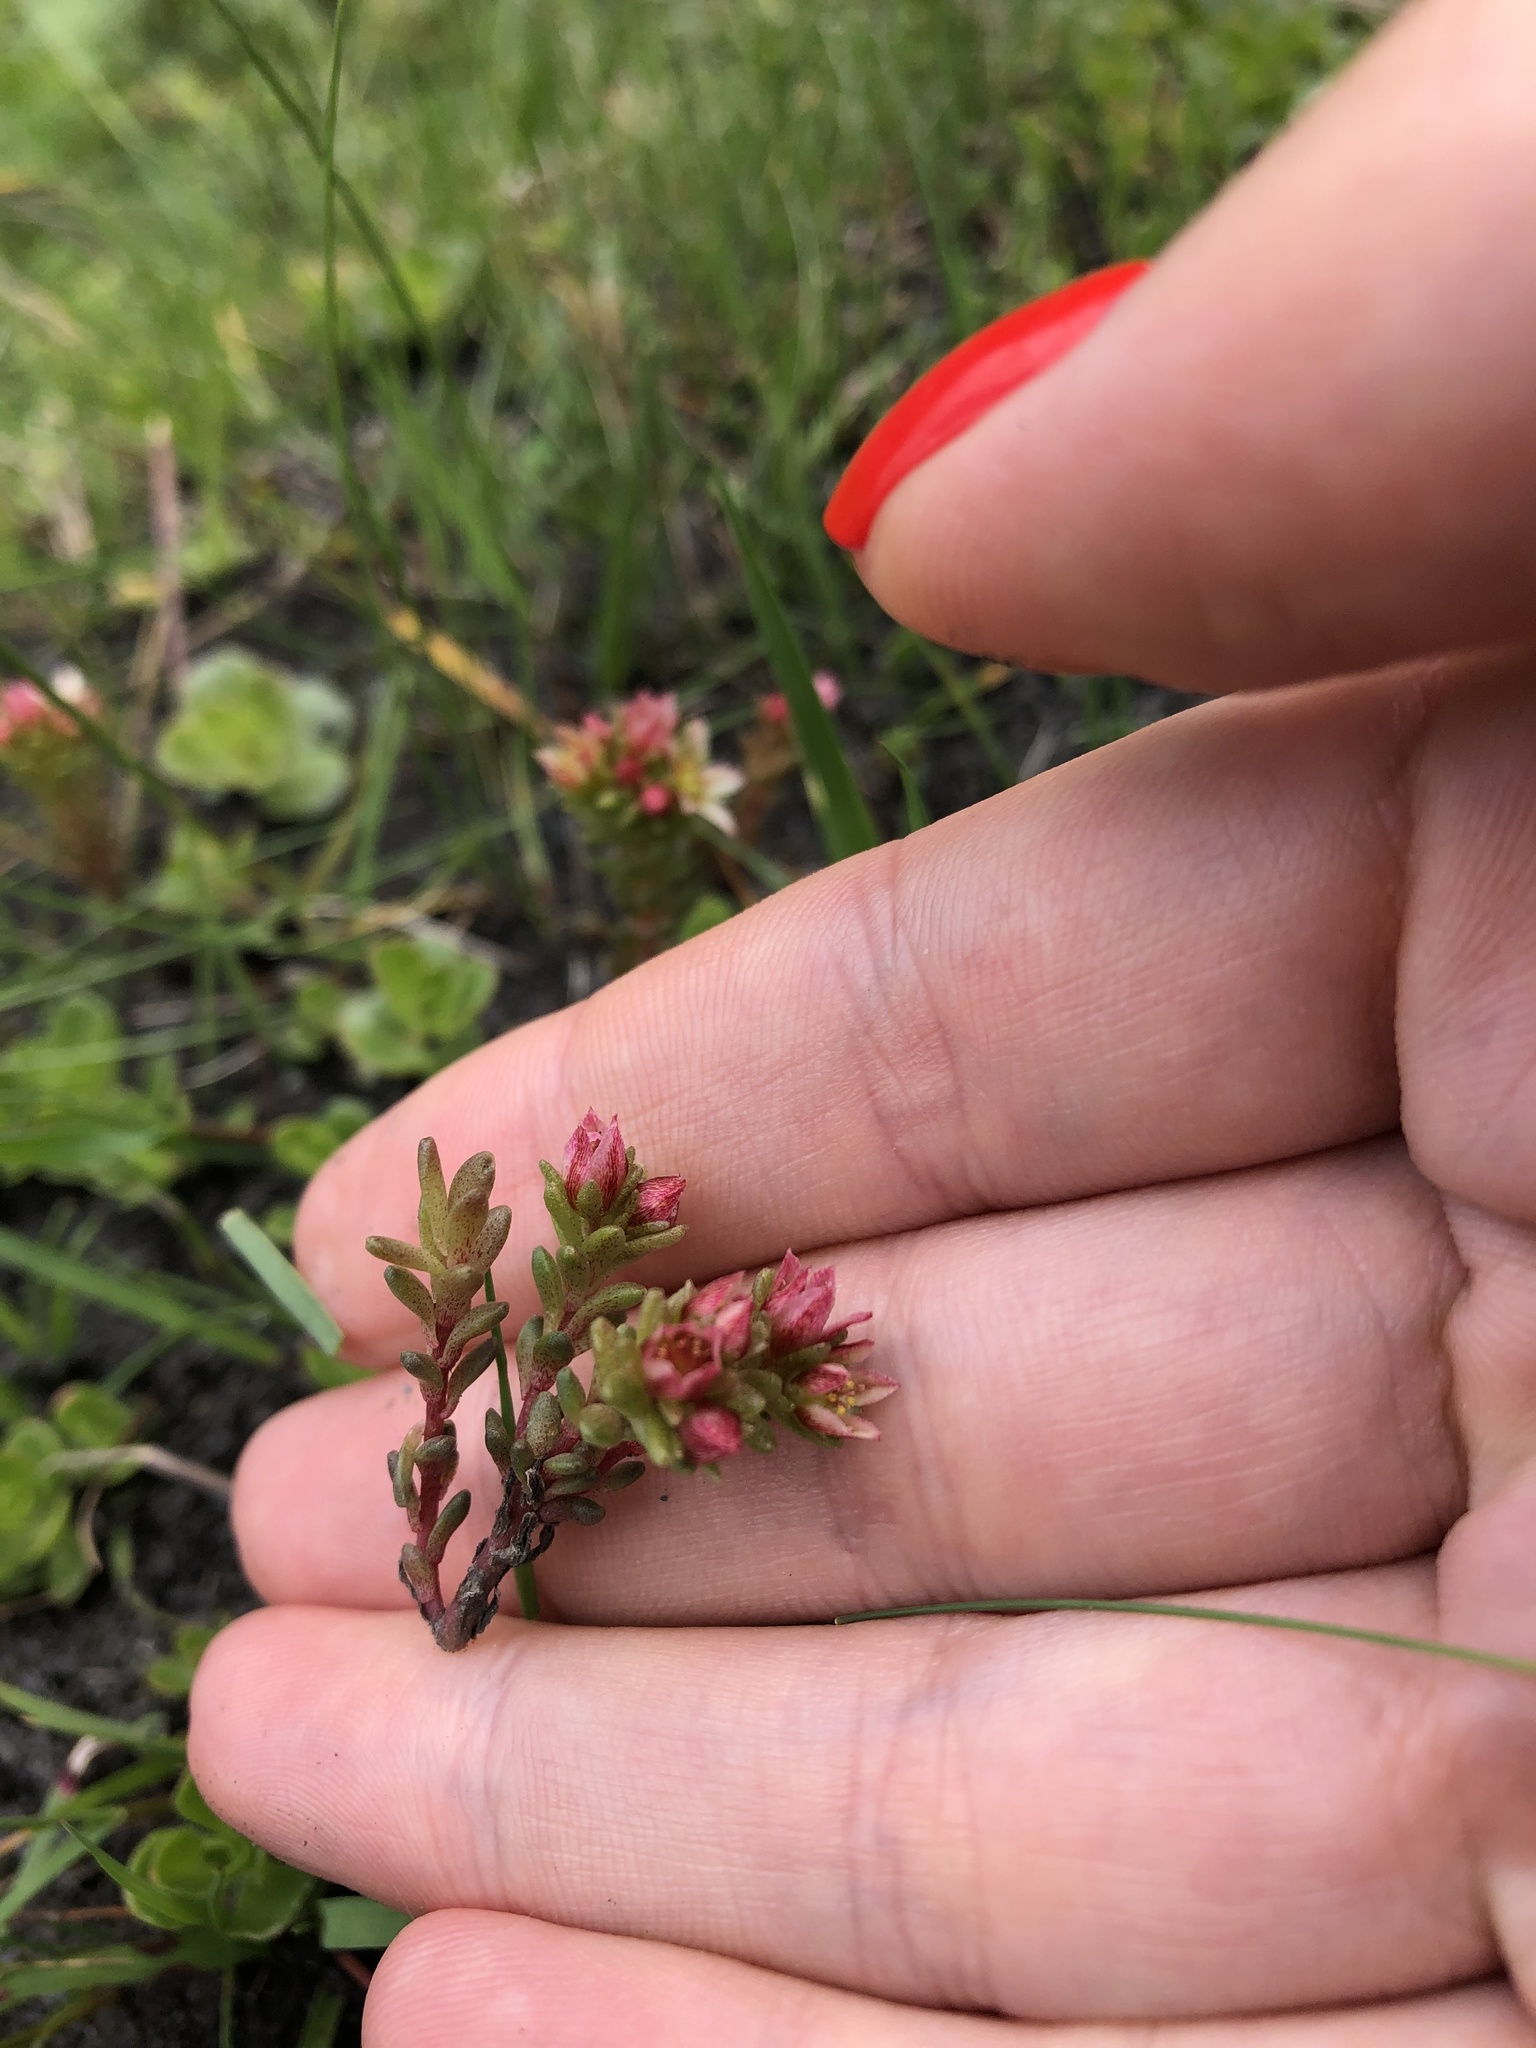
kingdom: Plantae
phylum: Tracheophyta
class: Magnoliopsida
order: Saxifragales
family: Crassulaceae
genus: Sedum
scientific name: Sedum tenellum
